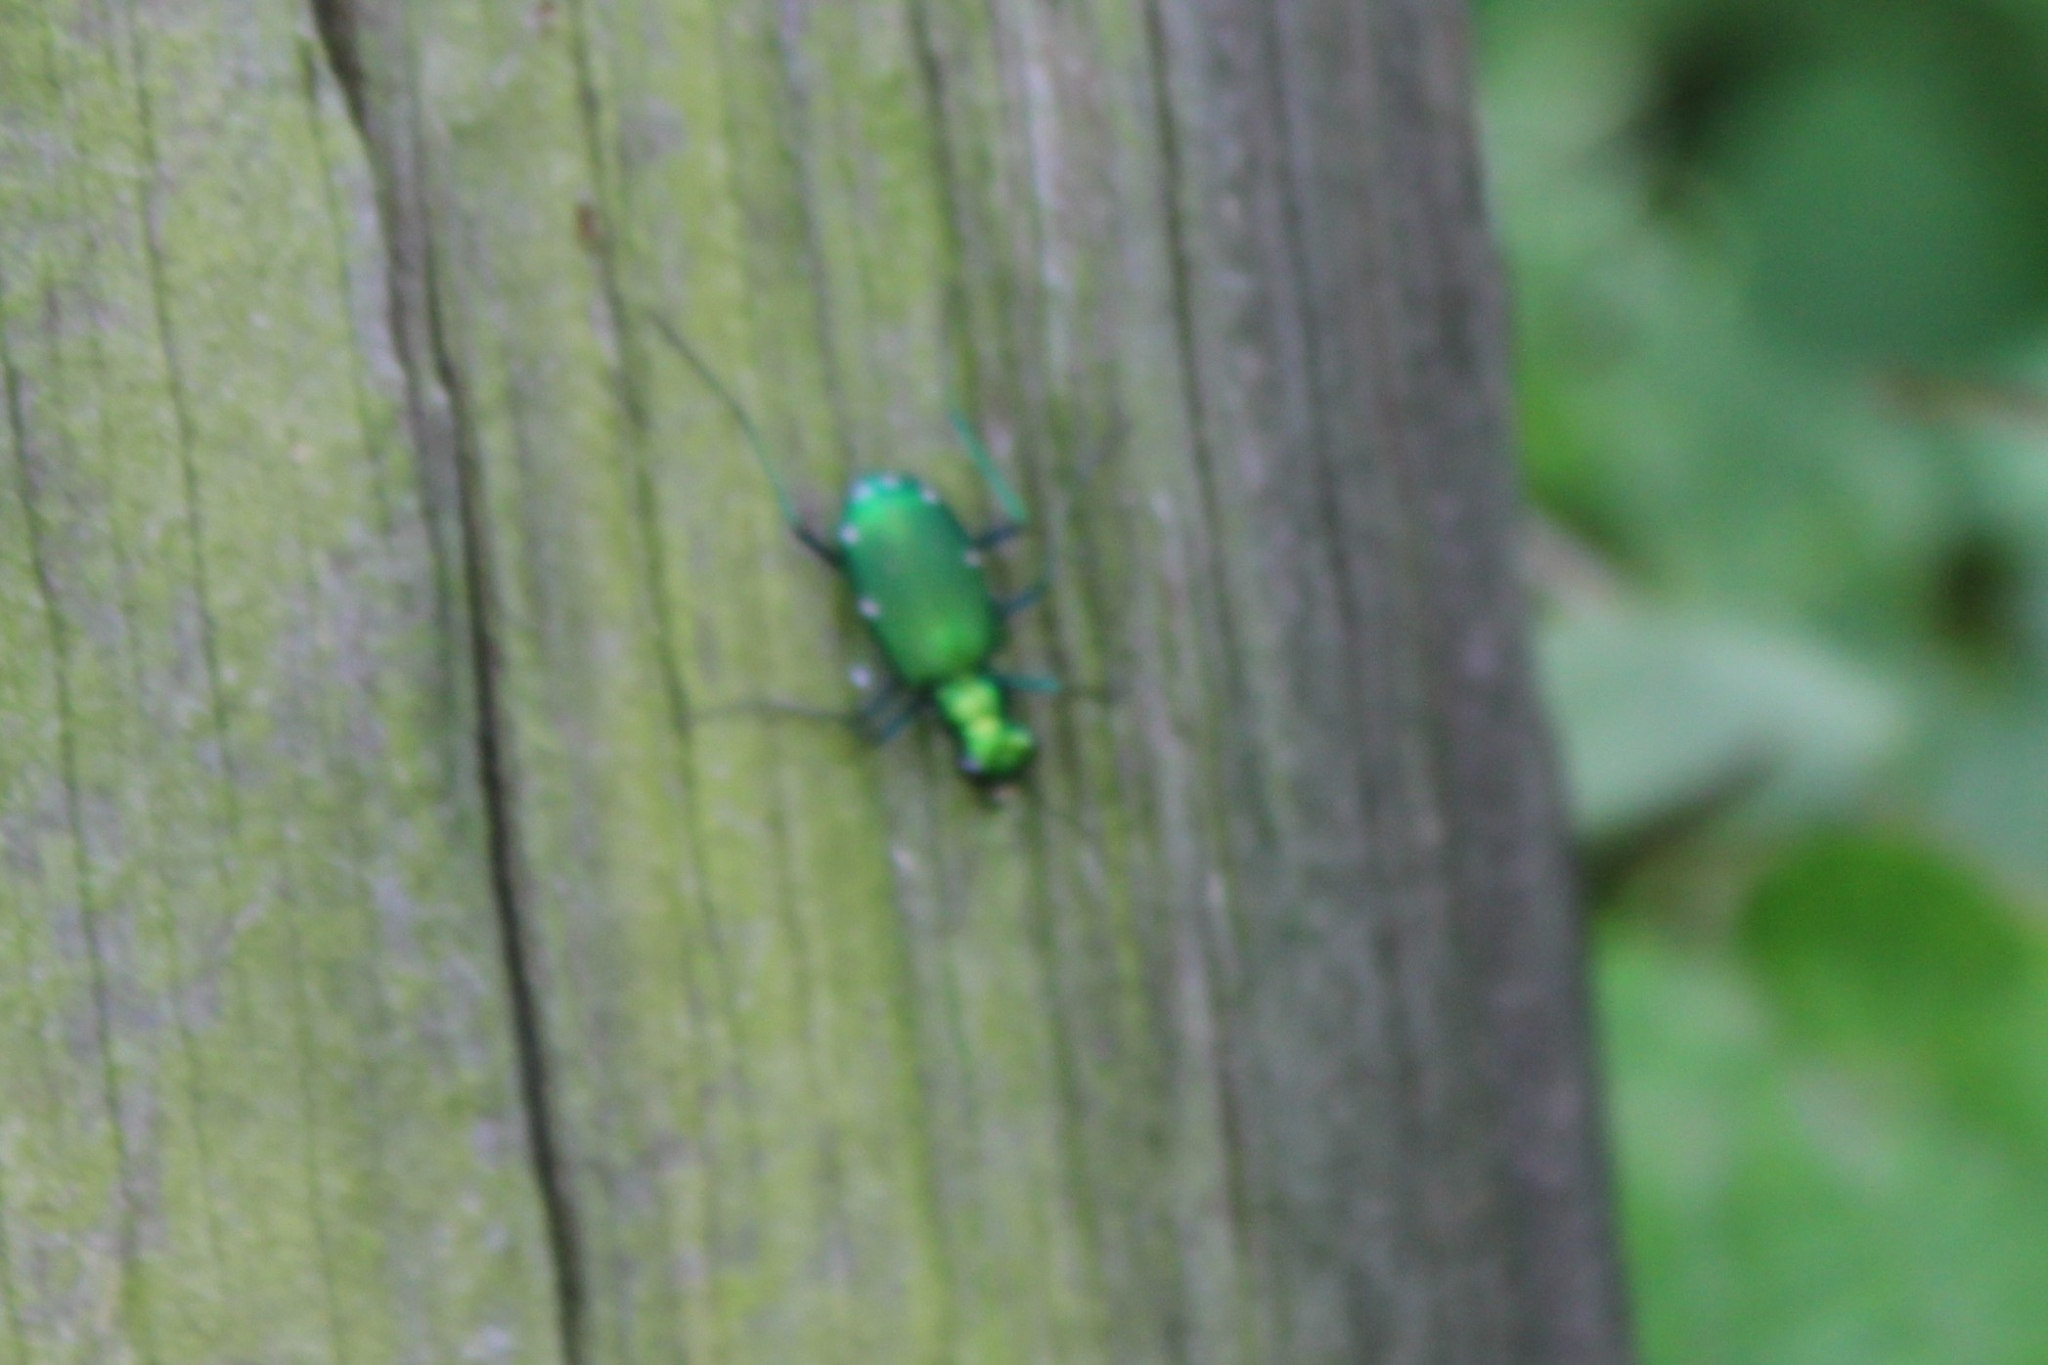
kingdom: Animalia
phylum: Arthropoda
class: Insecta
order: Coleoptera
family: Carabidae
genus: Cicindela
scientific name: Cicindela sexguttata
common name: Six-spotted tiger beetle
